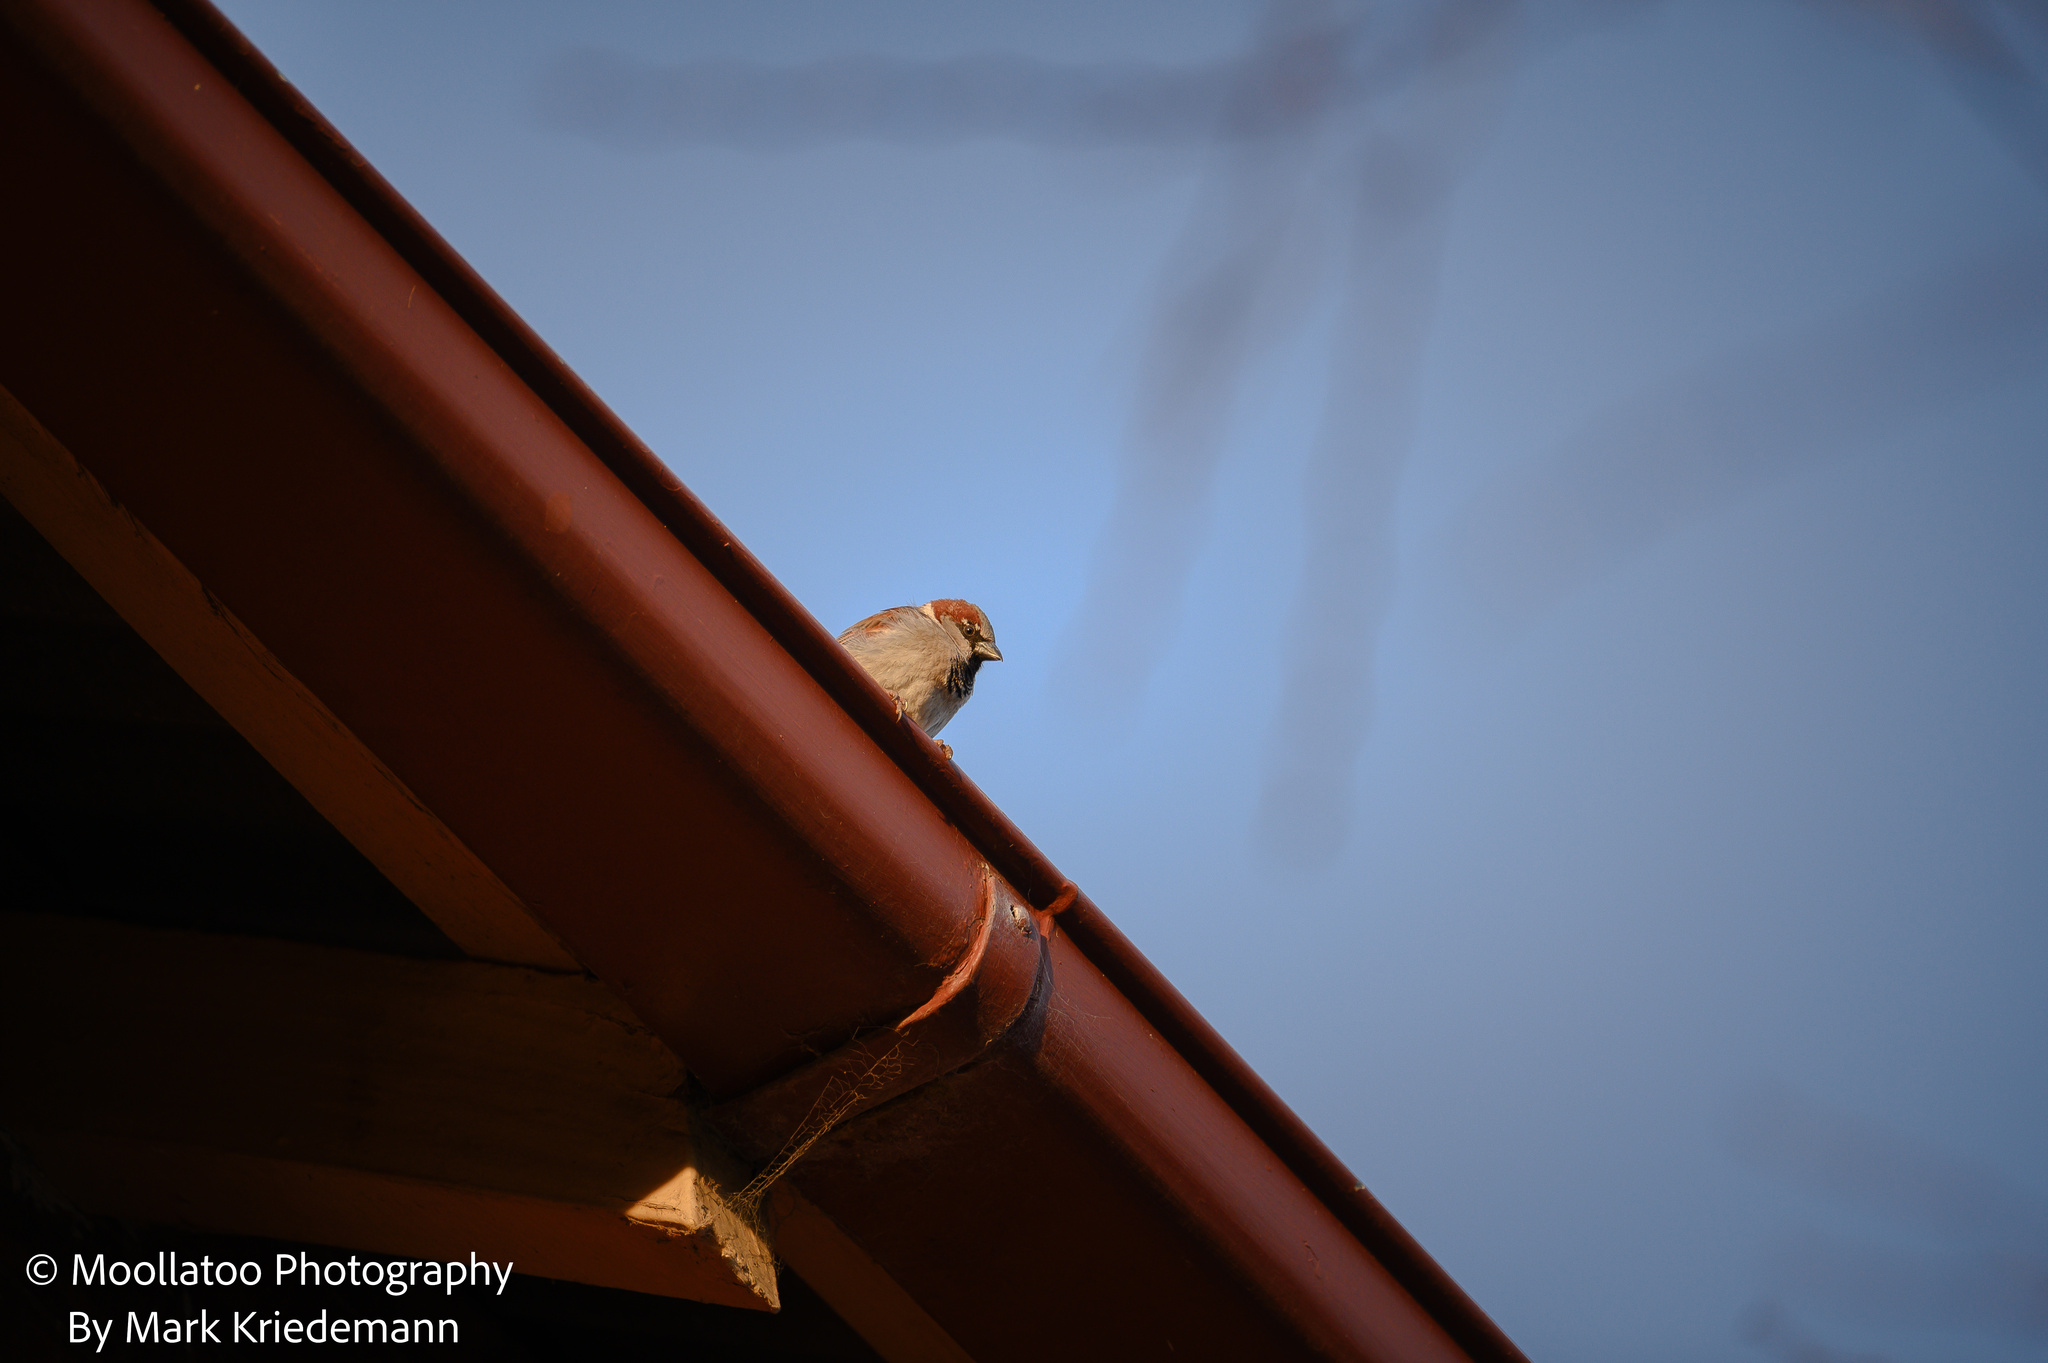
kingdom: Animalia
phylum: Chordata
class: Aves
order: Passeriformes
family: Passeridae
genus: Passer
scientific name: Passer domesticus
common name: House sparrow
